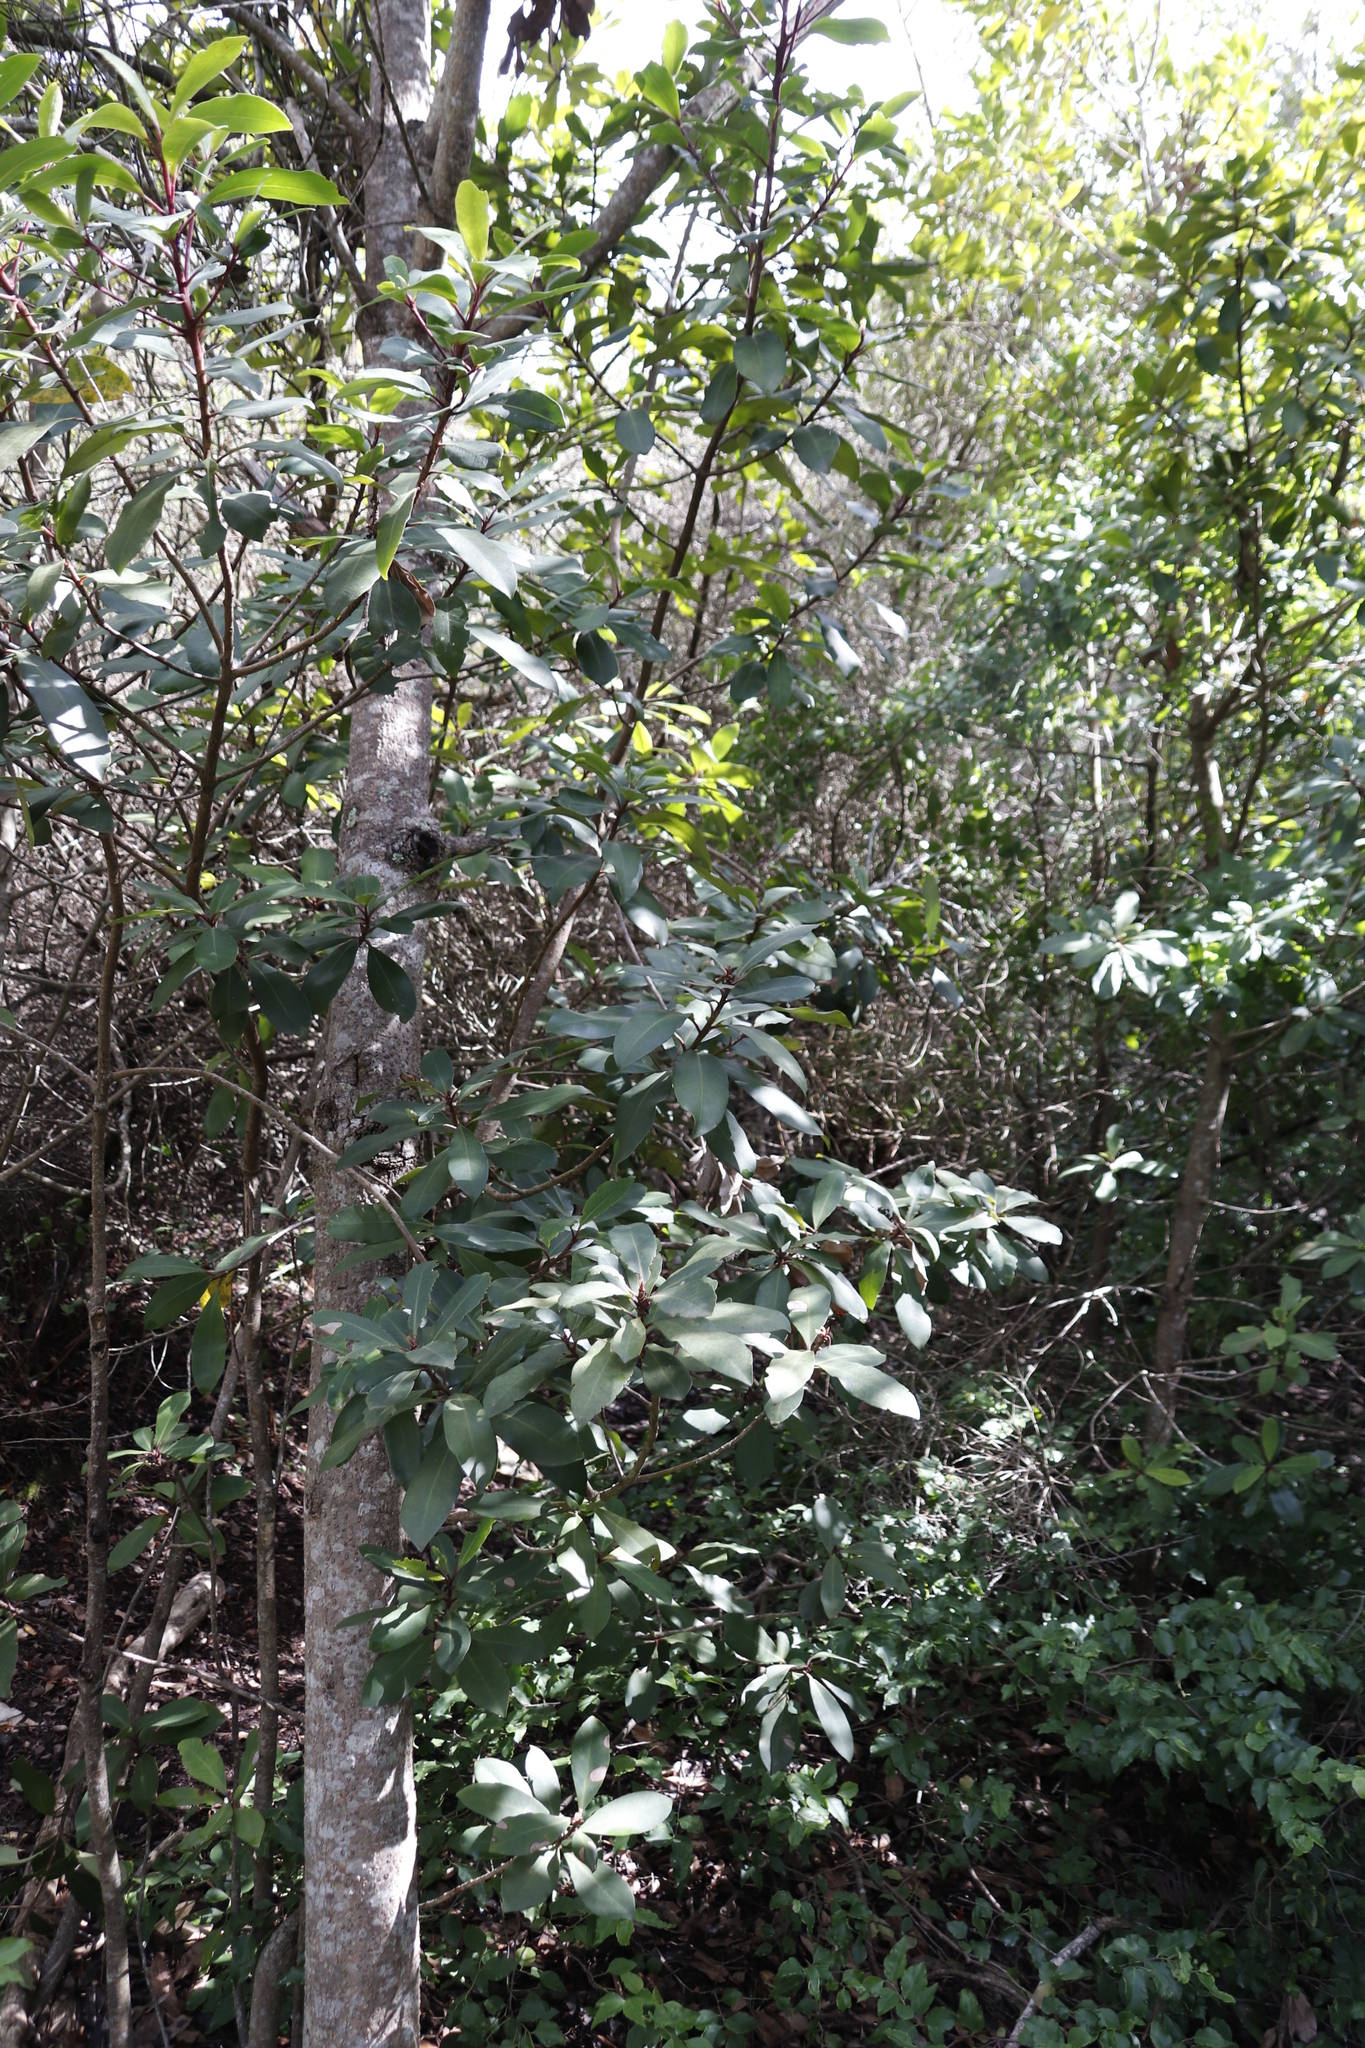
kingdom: Plantae
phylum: Tracheophyta
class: Magnoliopsida
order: Ericales
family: Primulaceae
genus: Myrsine
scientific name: Myrsine melanophloeos
